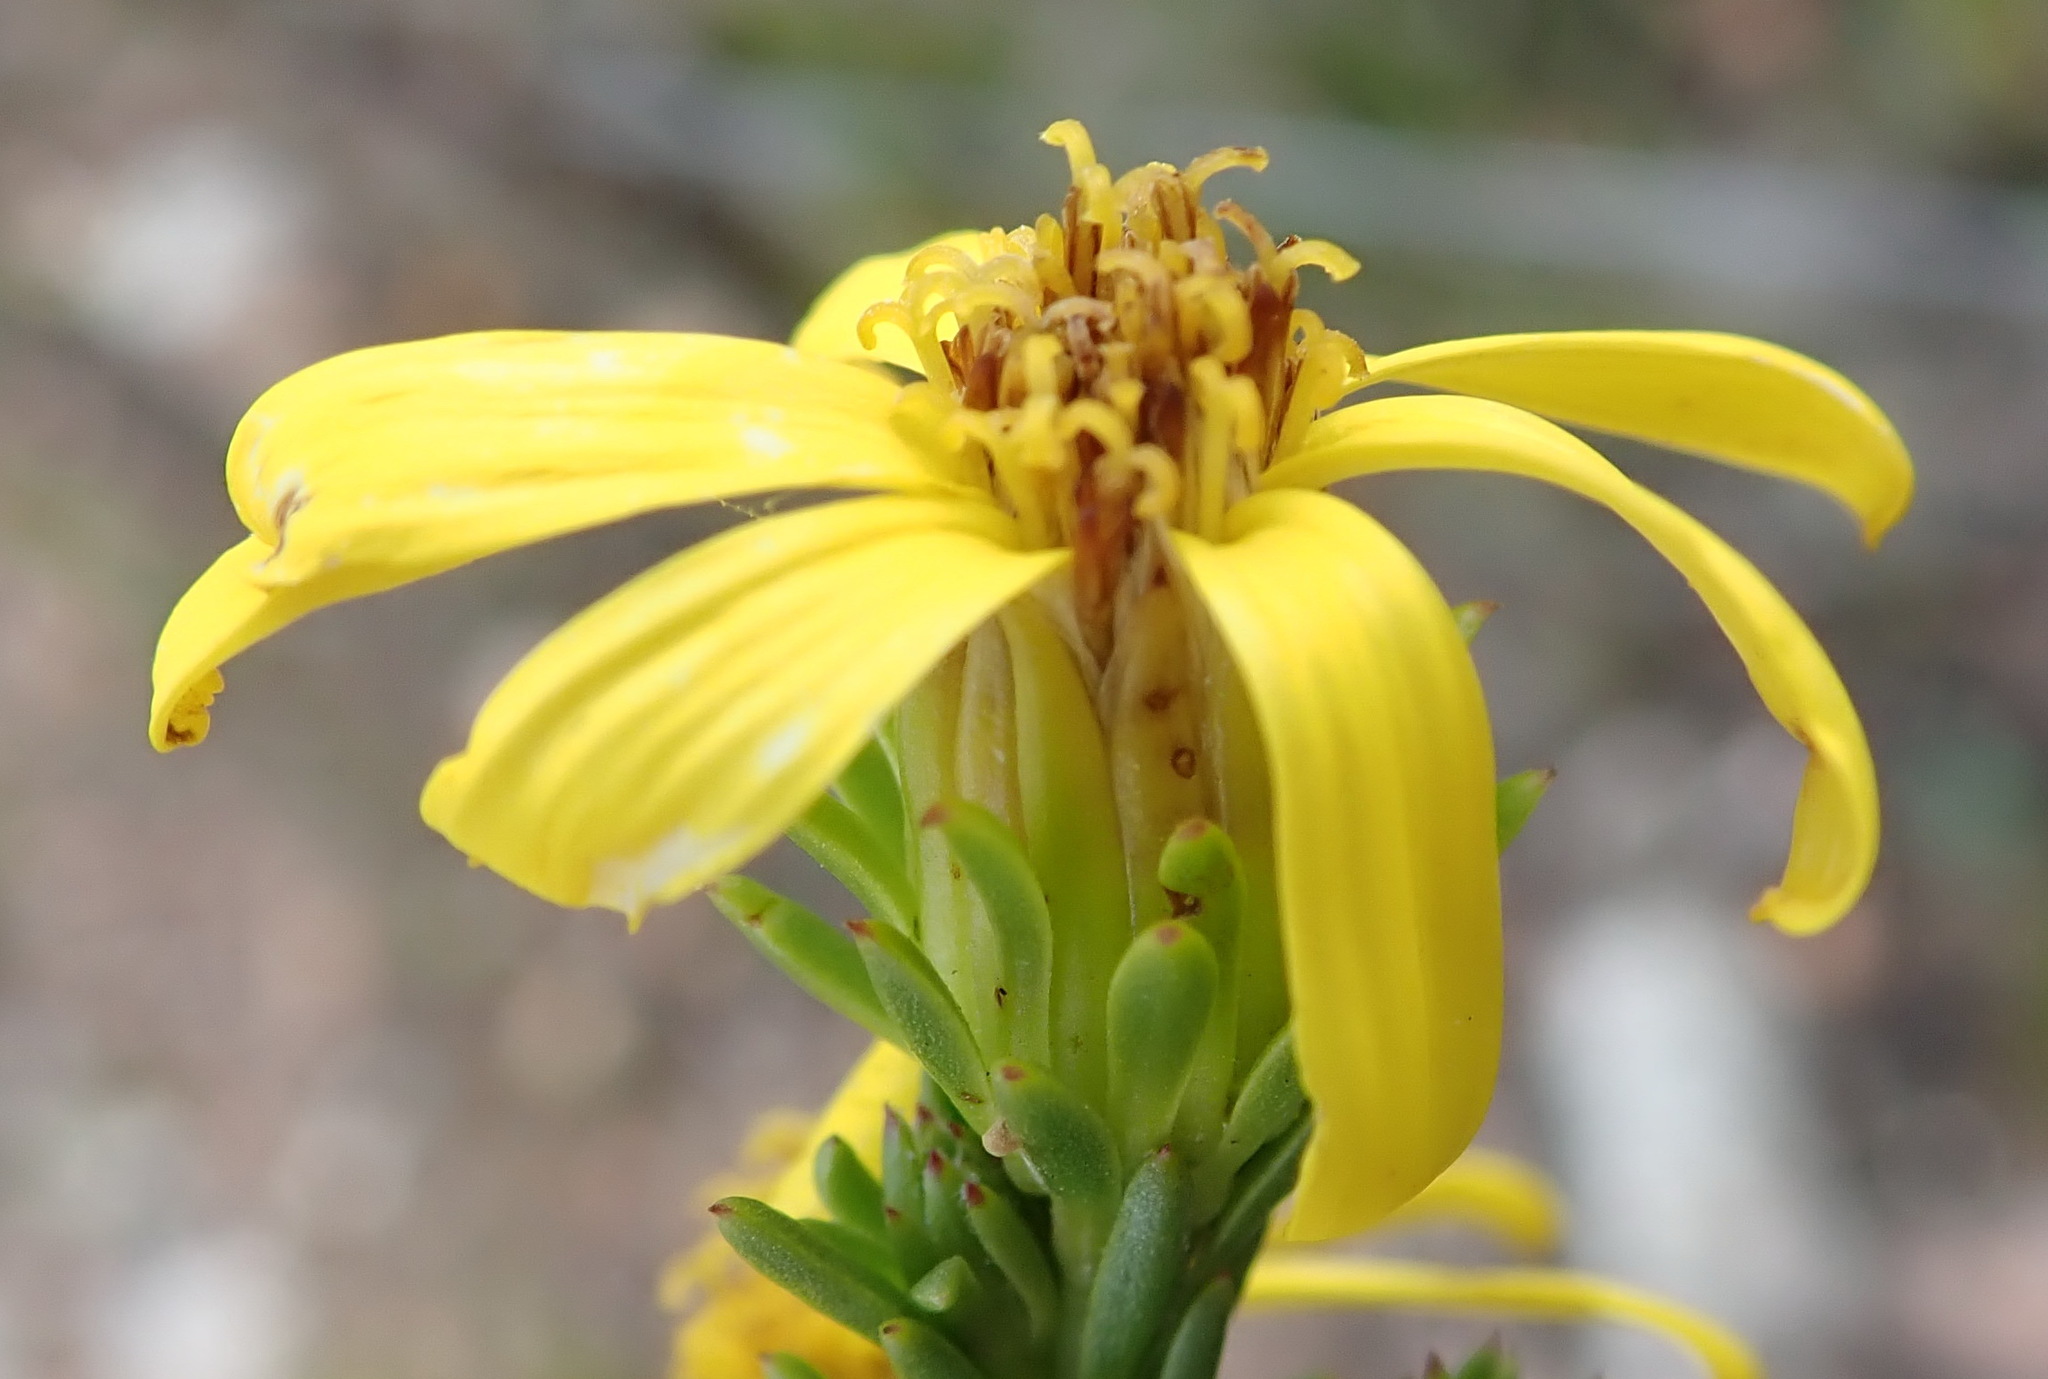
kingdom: Plantae
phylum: Tracheophyta
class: Magnoliopsida
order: Asterales
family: Asteraceae
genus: Senecio
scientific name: Senecio pinifolius
